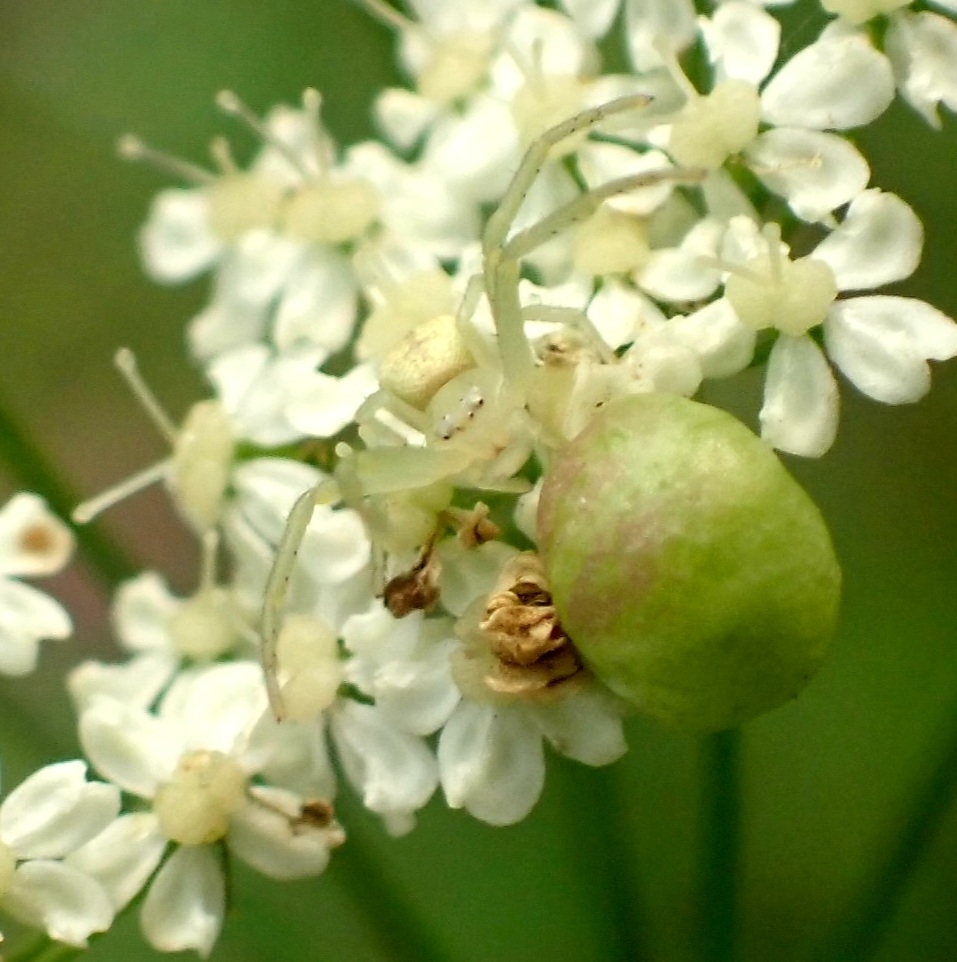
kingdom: Animalia
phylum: Arthropoda
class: Arachnida
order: Araneae
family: Thomisidae
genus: Misumena
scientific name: Misumena vatia
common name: Goldenrod crab spider
